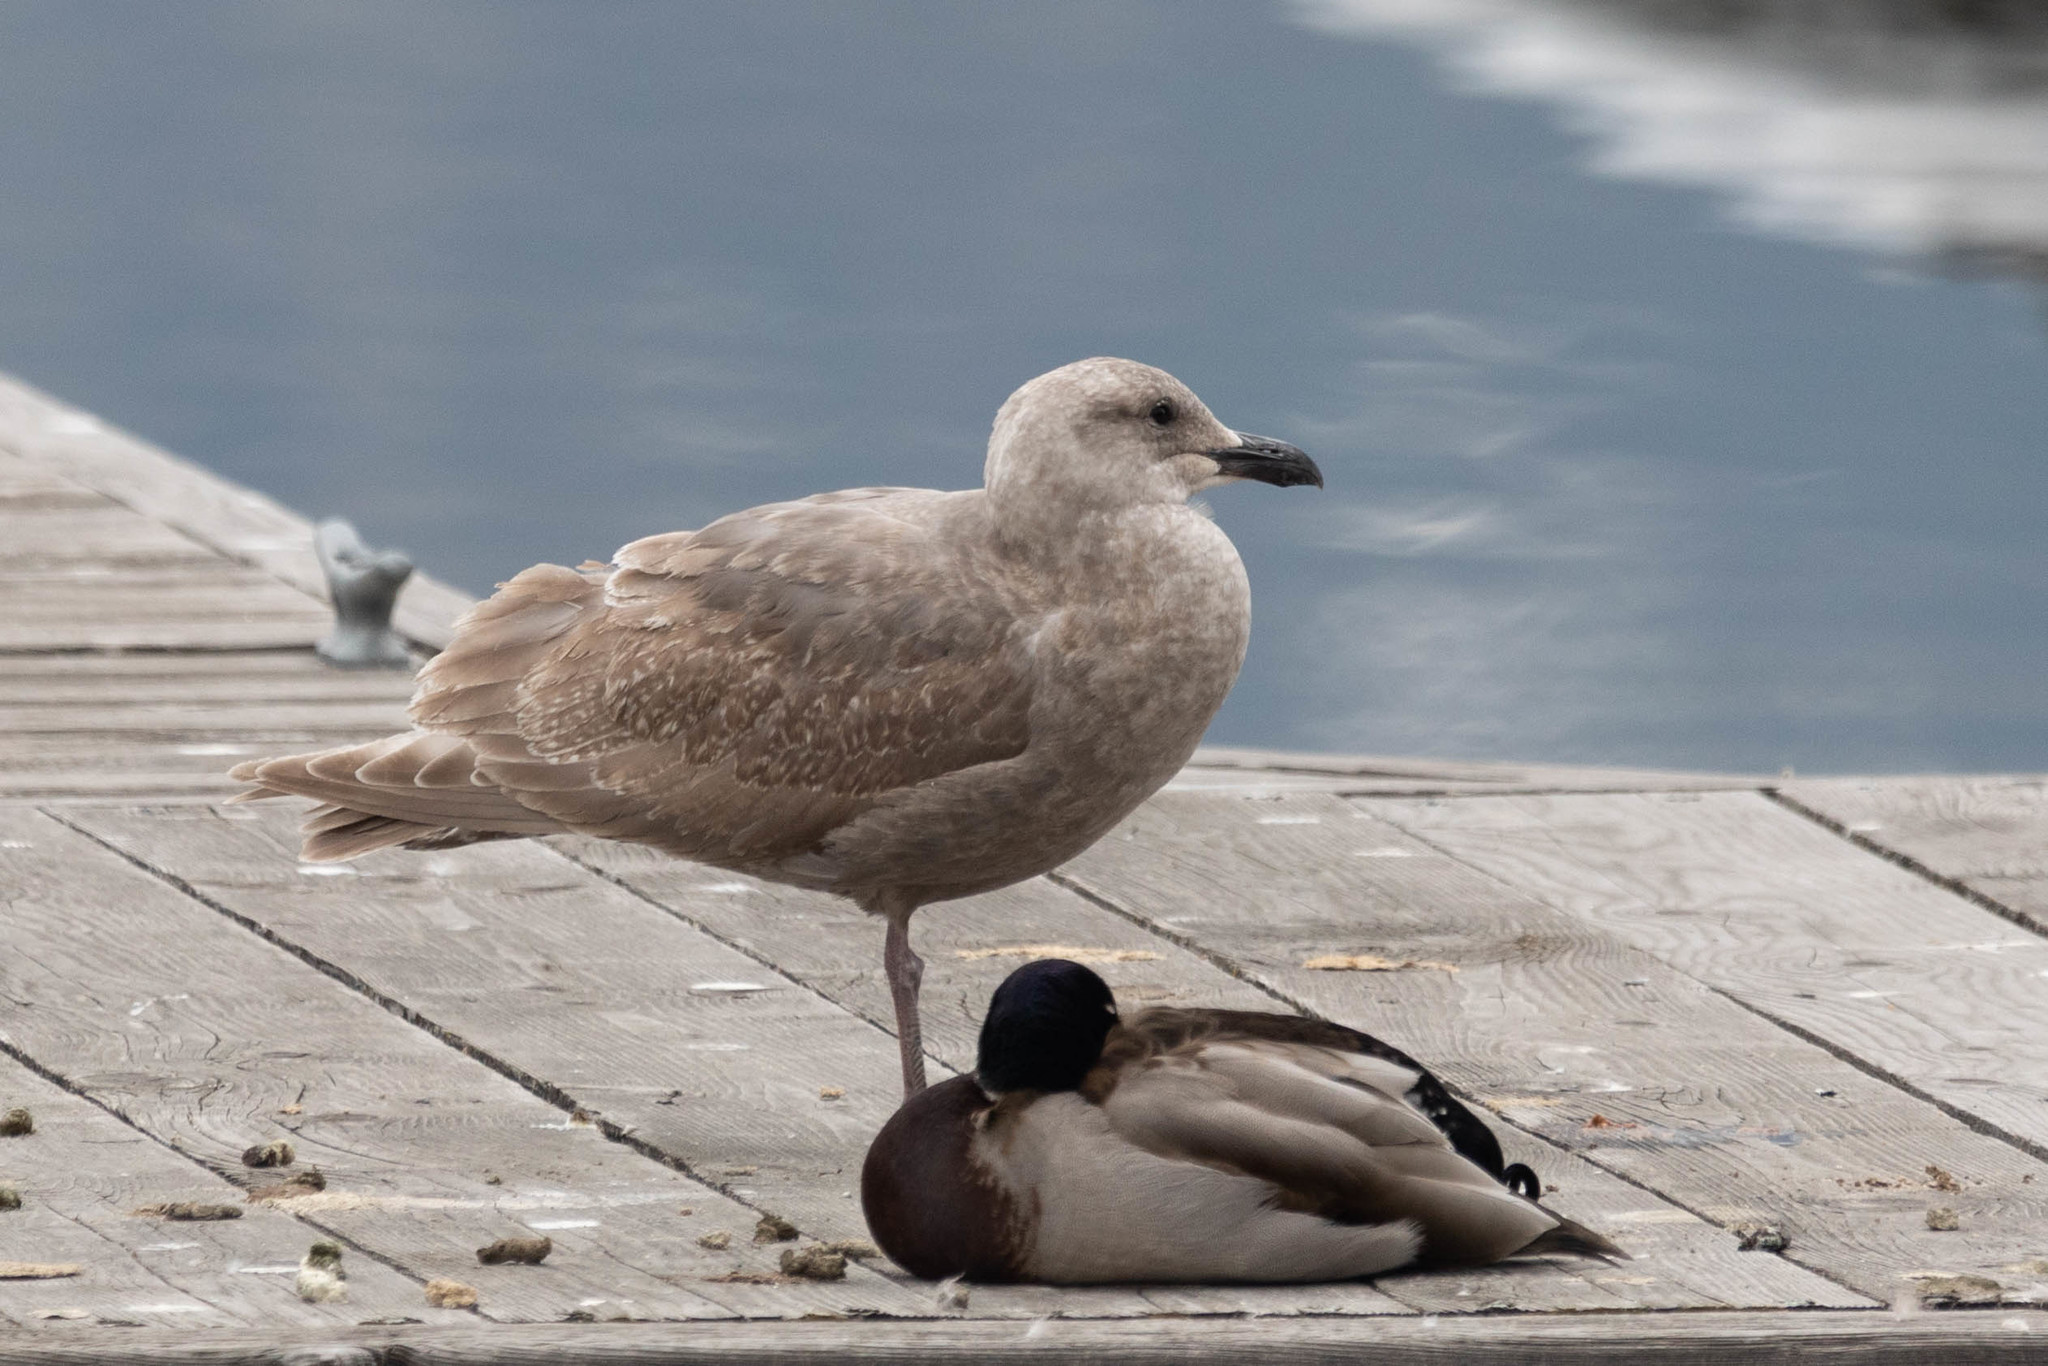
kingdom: Animalia
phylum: Chordata
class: Aves
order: Charadriiformes
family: Laridae
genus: Larus
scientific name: Larus glaucescens
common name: Glaucous-winged gull
